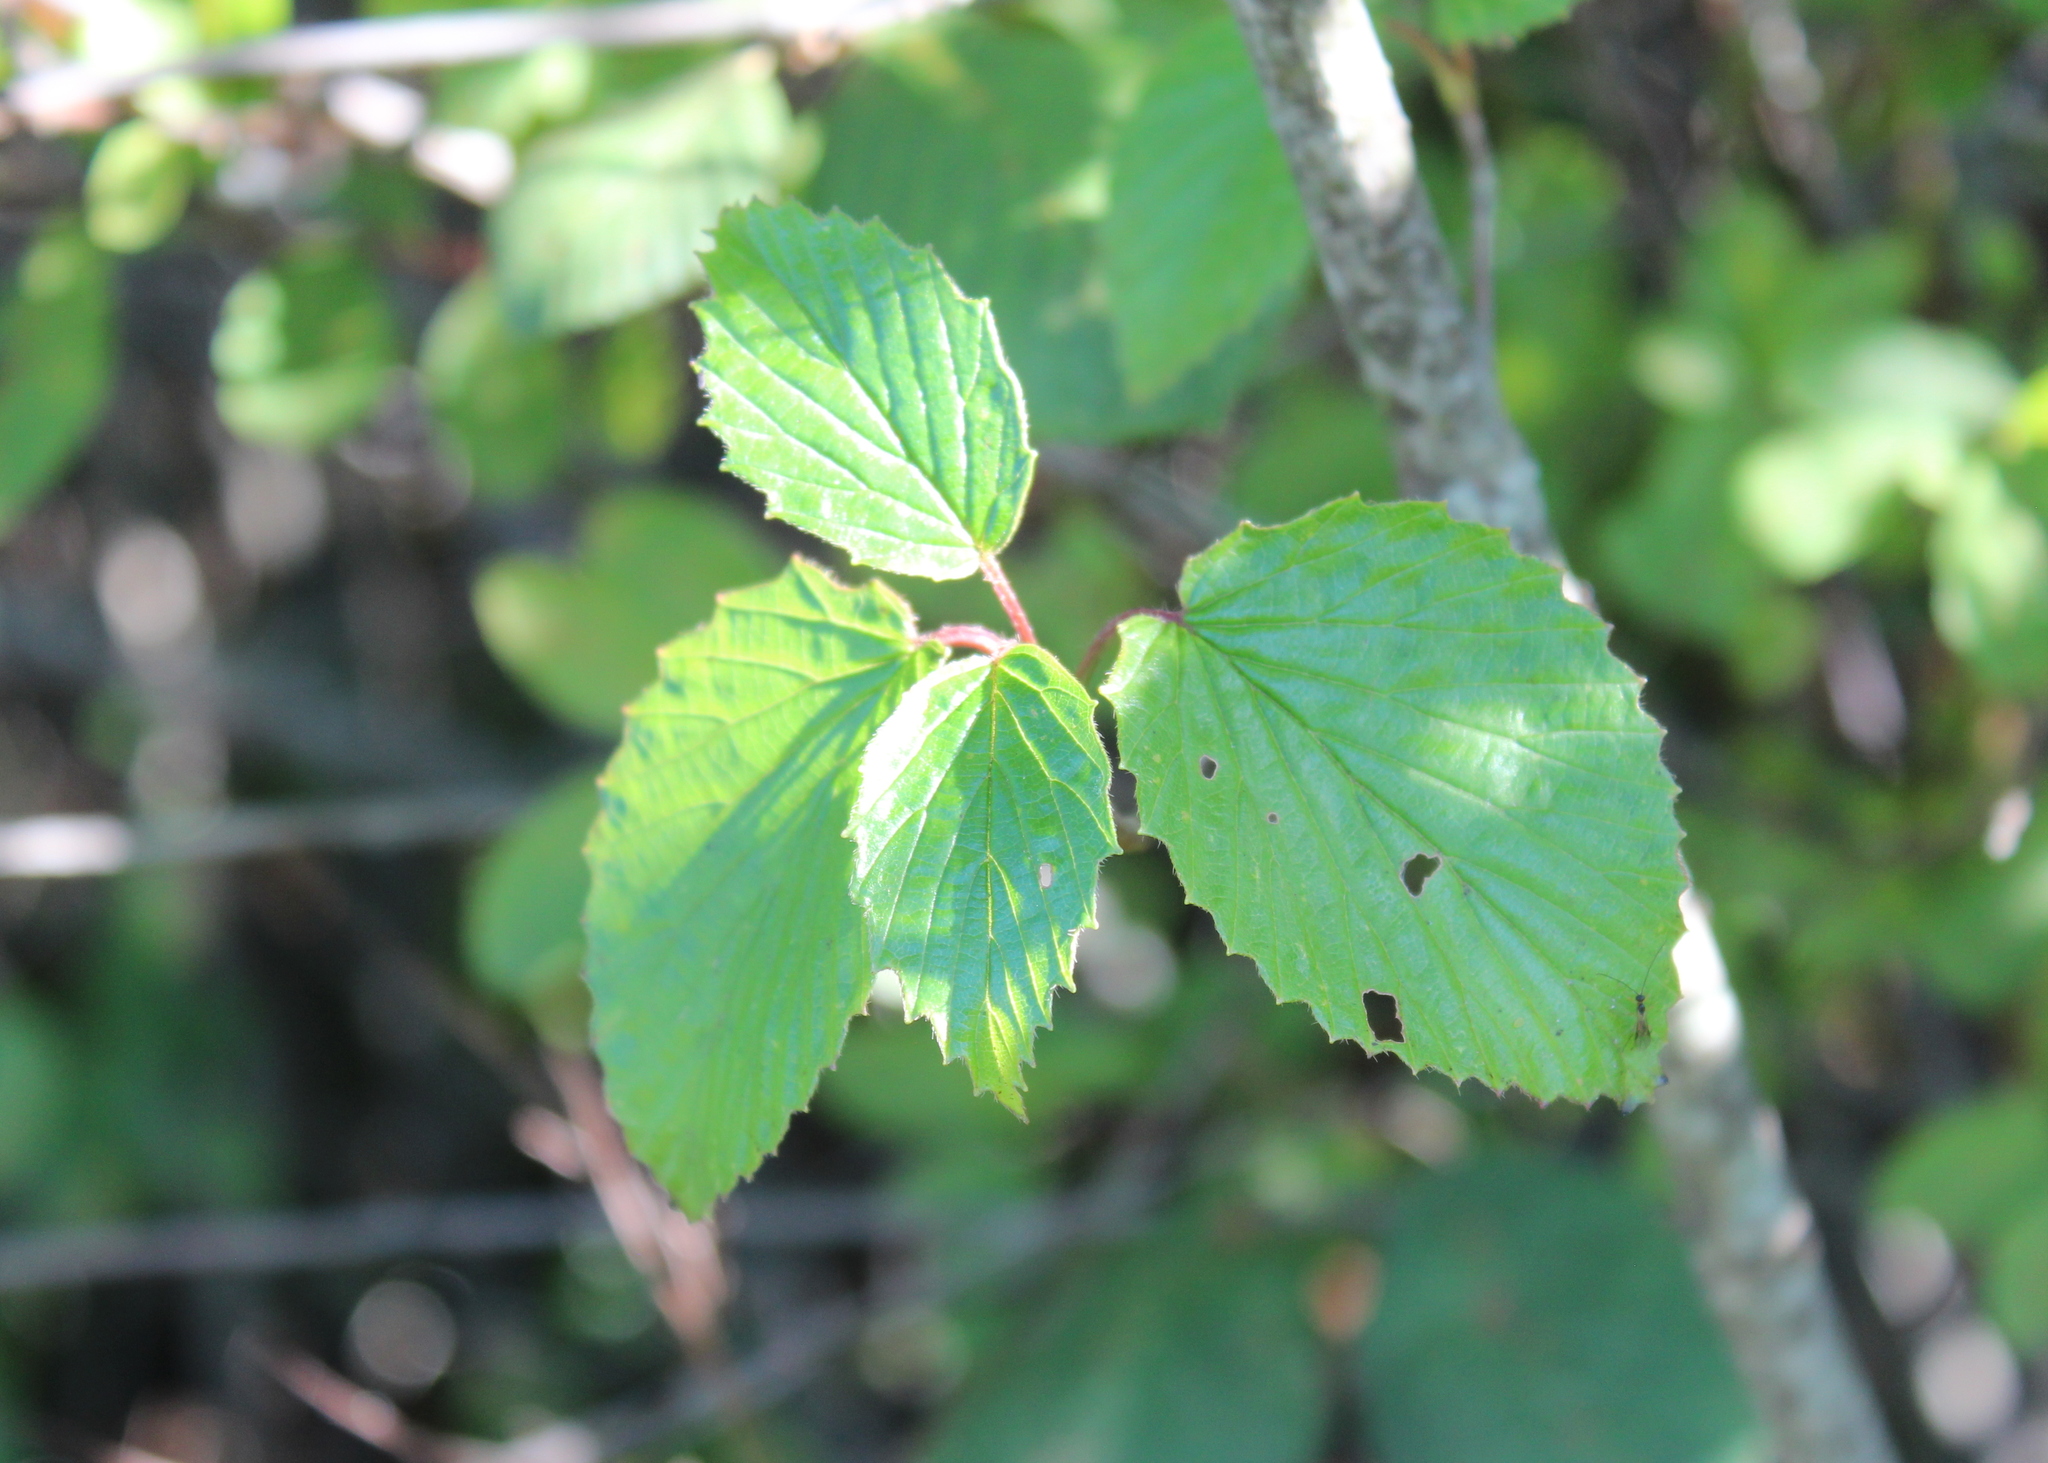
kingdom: Plantae
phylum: Tracheophyta
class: Magnoliopsida
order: Dipsacales
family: Viburnaceae
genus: Viburnum
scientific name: Viburnum dentatum
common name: Arrow-wood
